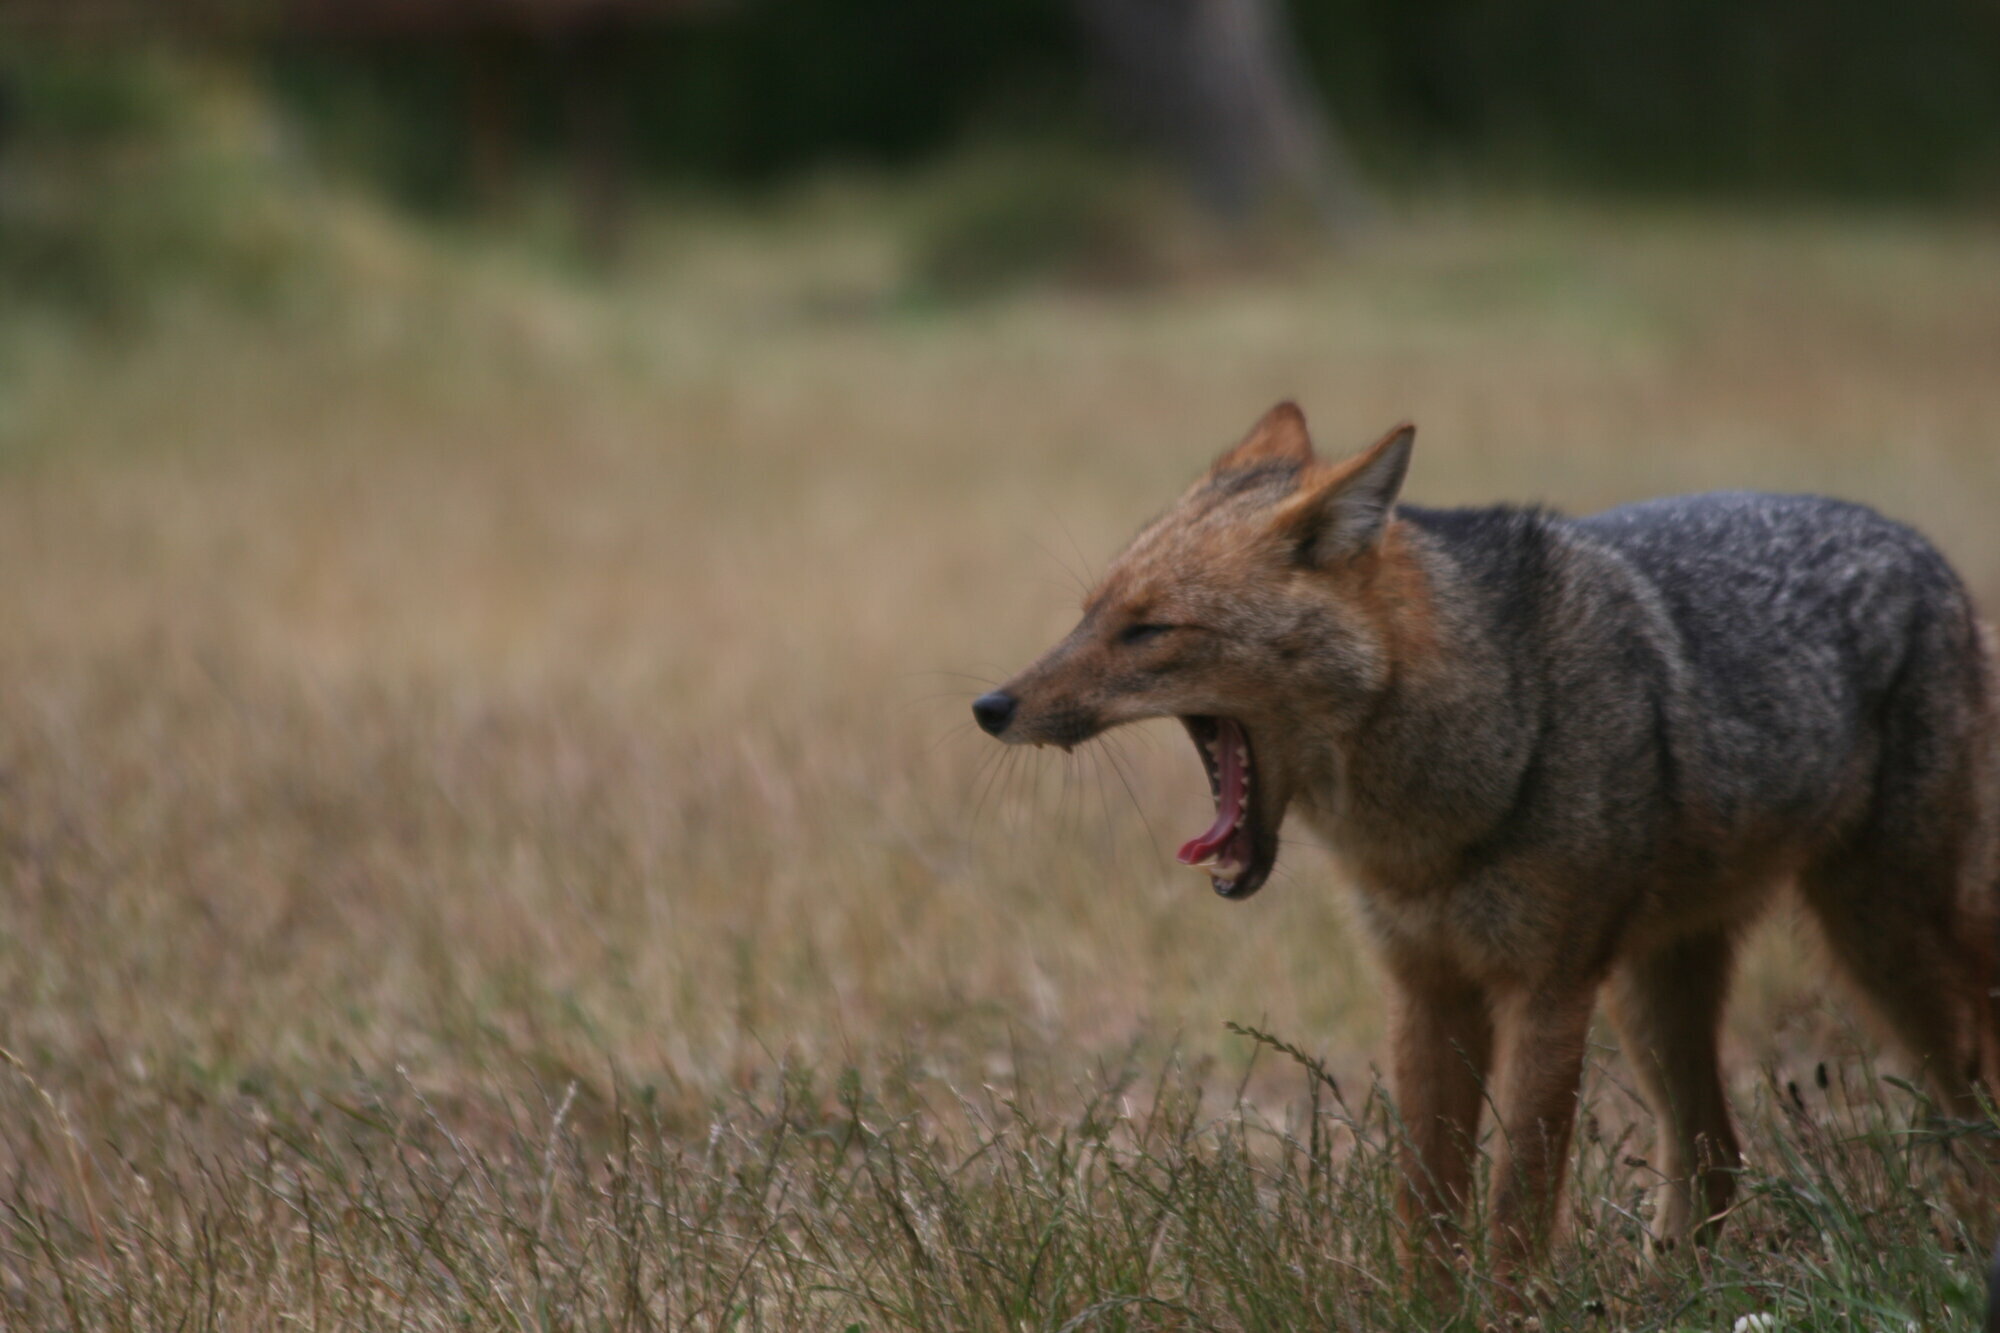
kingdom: Animalia
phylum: Chordata
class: Mammalia
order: Carnivora
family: Canidae
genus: Lycalopex
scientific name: Lycalopex culpaeus
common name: Culpeo
